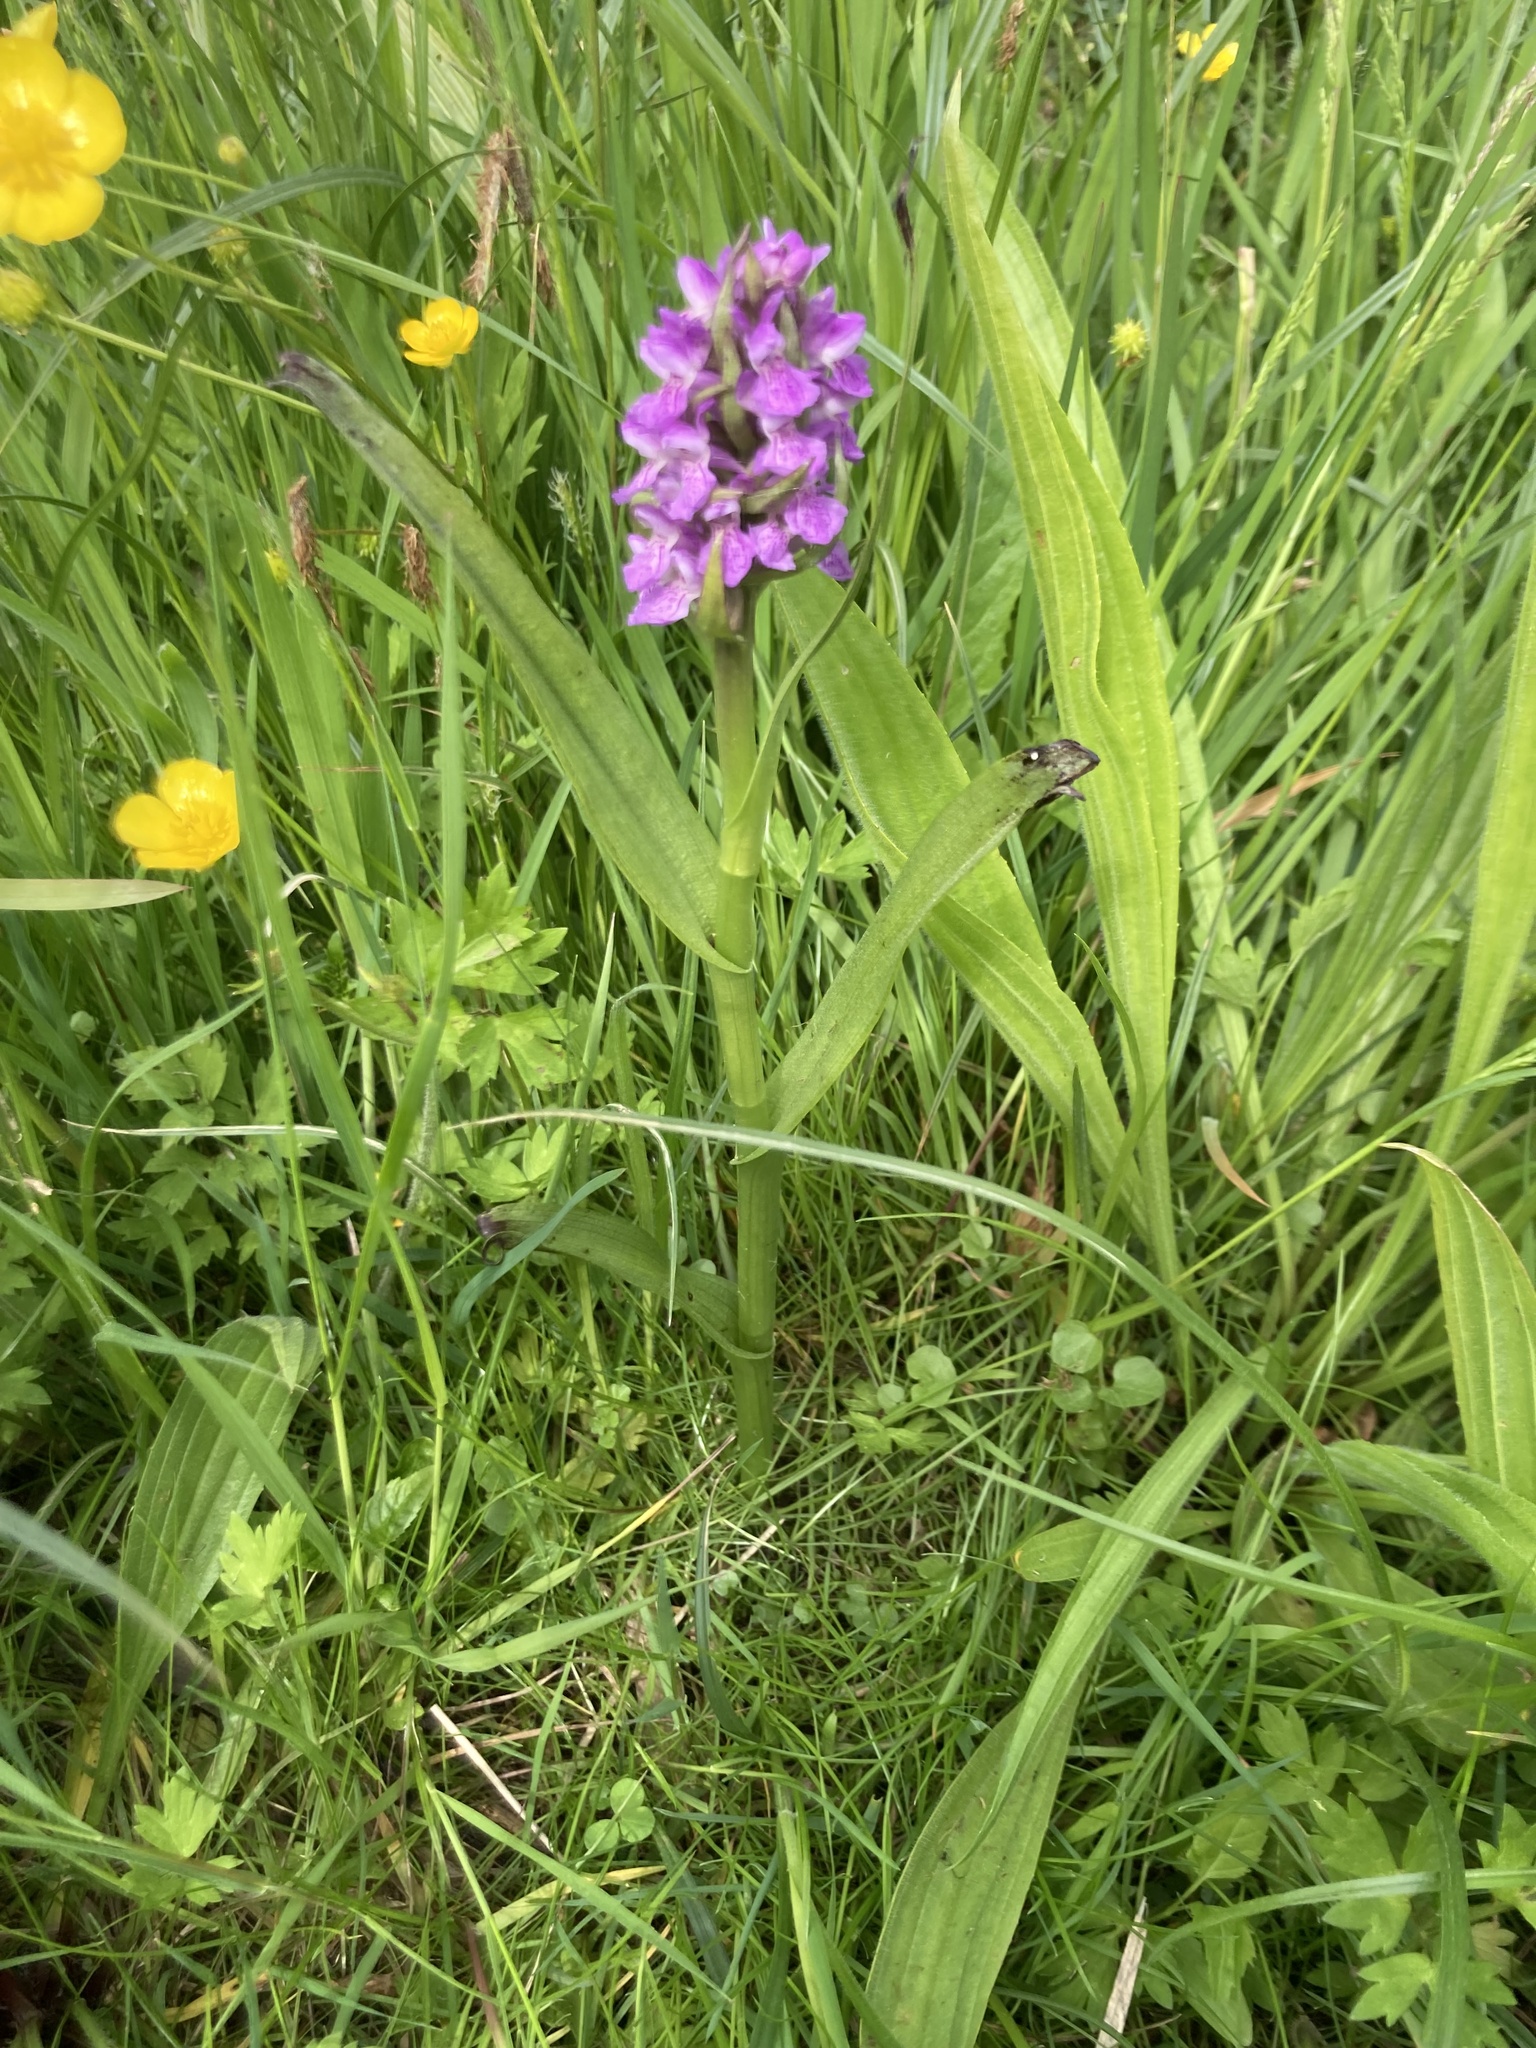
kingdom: Plantae
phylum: Tracheophyta
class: Liliopsida
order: Asparagales
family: Orchidaceae
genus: Dactylorhiza
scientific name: Dactylorhiza majalis
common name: Marsh orchid
